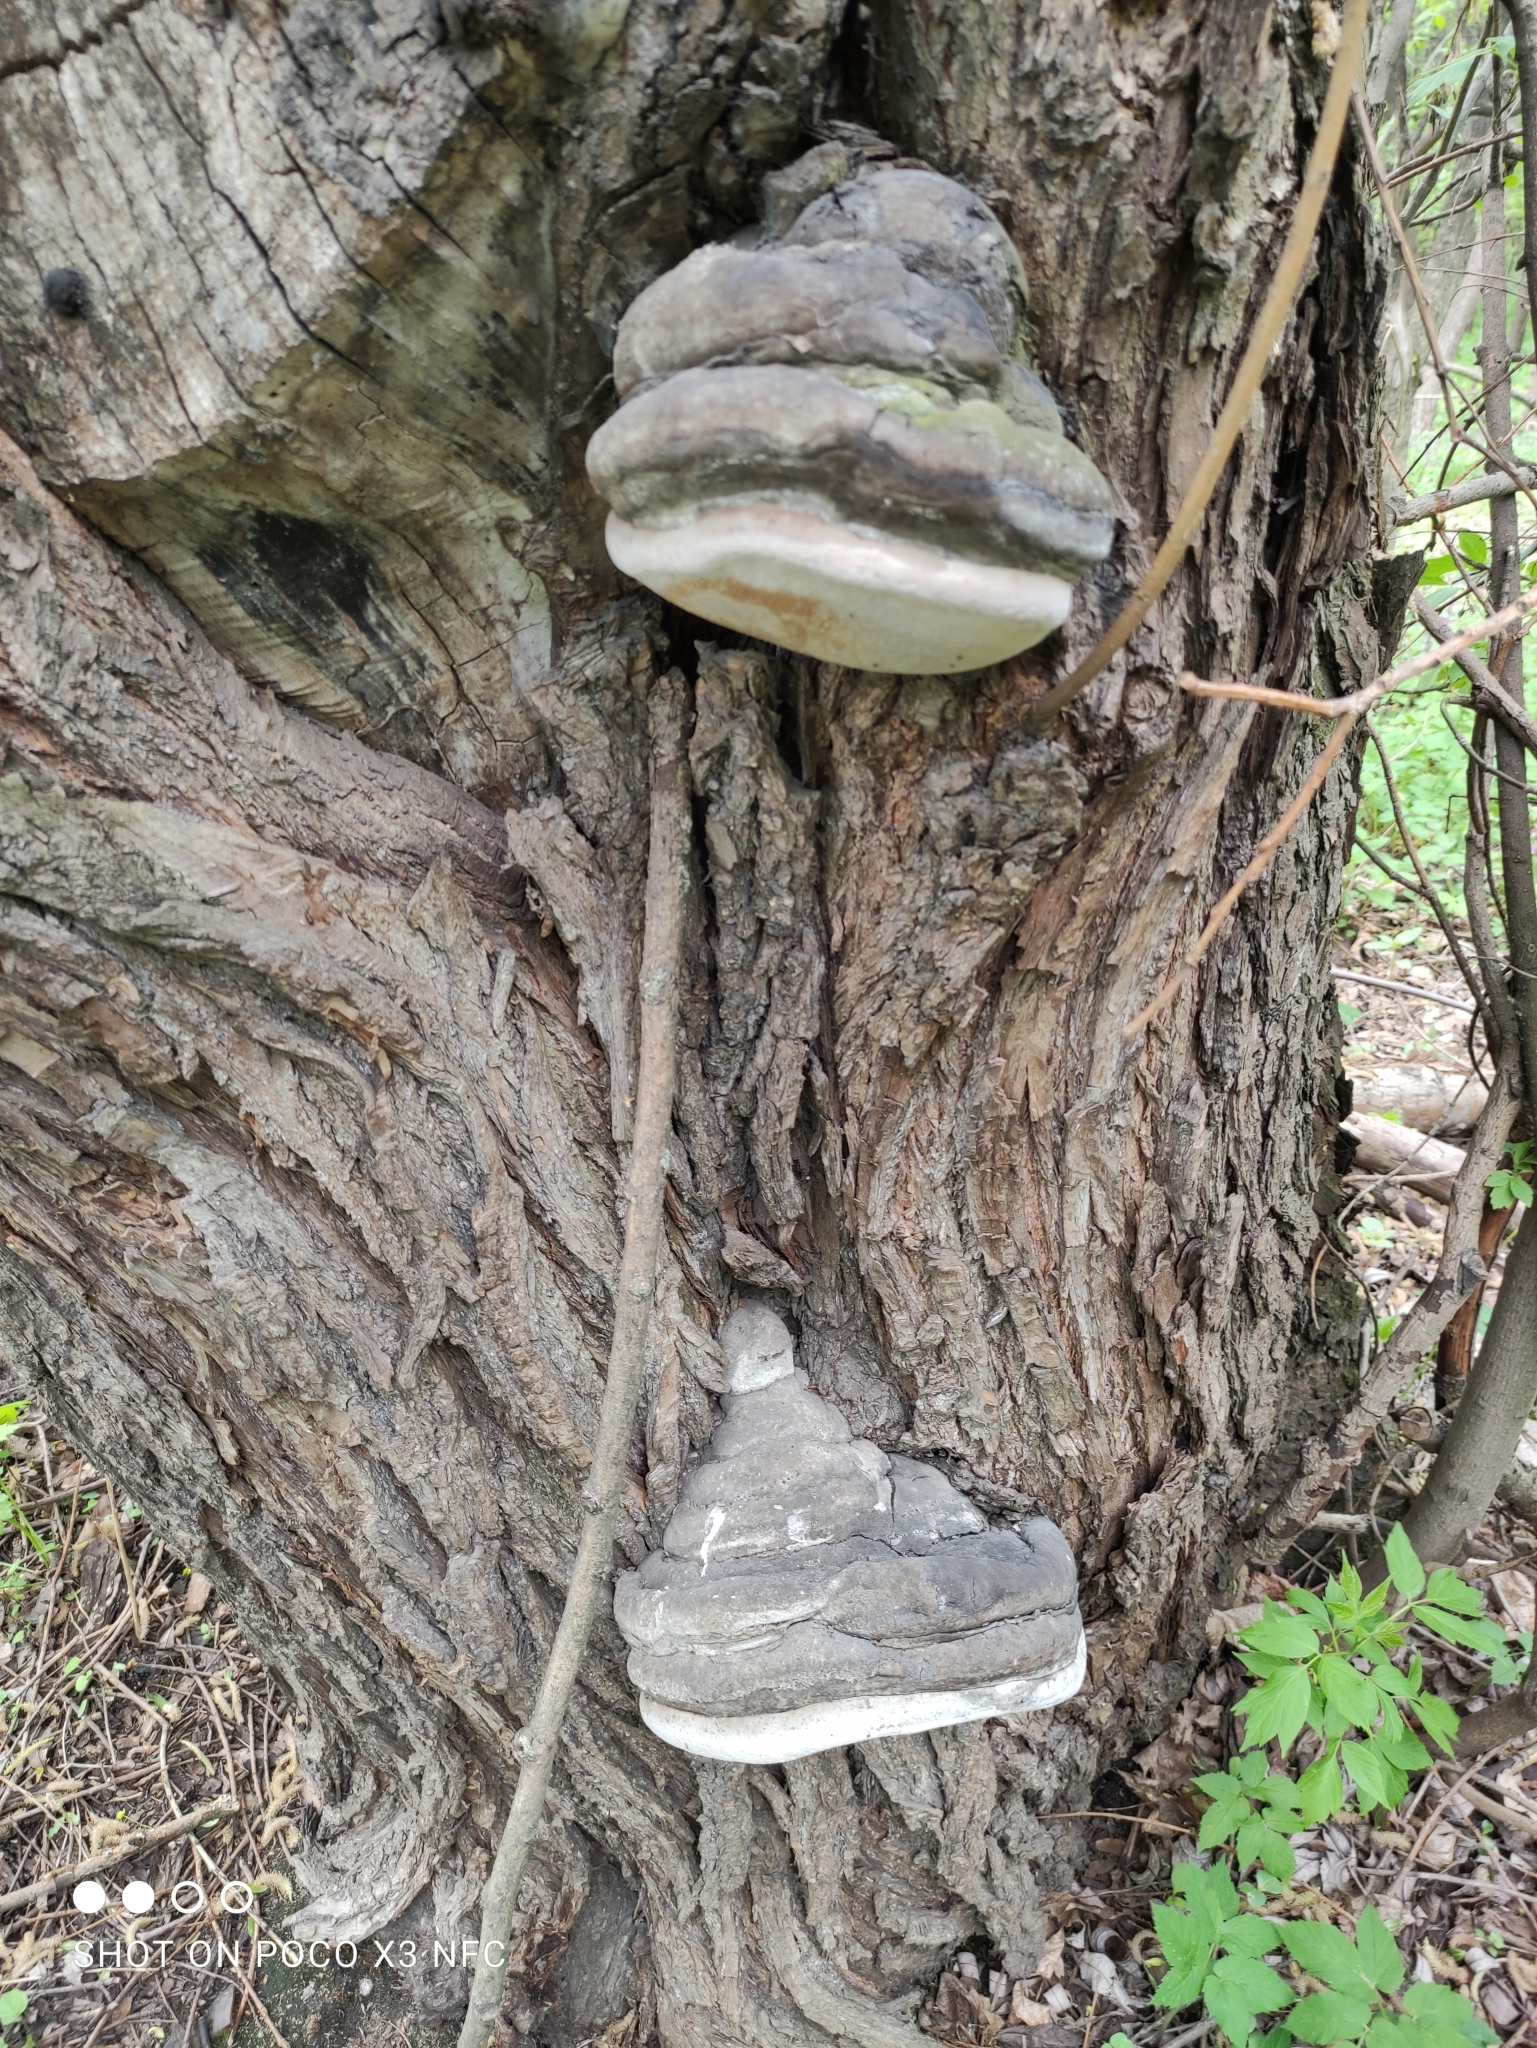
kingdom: Fungi
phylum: Basidiomycota
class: Agaricomycetes
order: Polyporales
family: Polyporaceae
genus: Fomes
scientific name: Fomes fomentarius
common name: Hoof fungus
